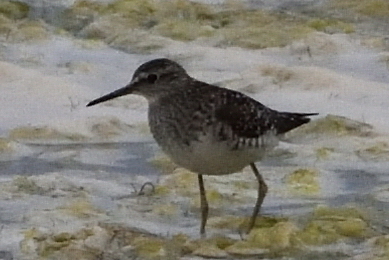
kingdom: Animalia
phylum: Chordata
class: Aves
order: Charadriiformes
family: Scolopacidae
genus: Tringa
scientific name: Tringa glareola
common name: Wood sandpiper
